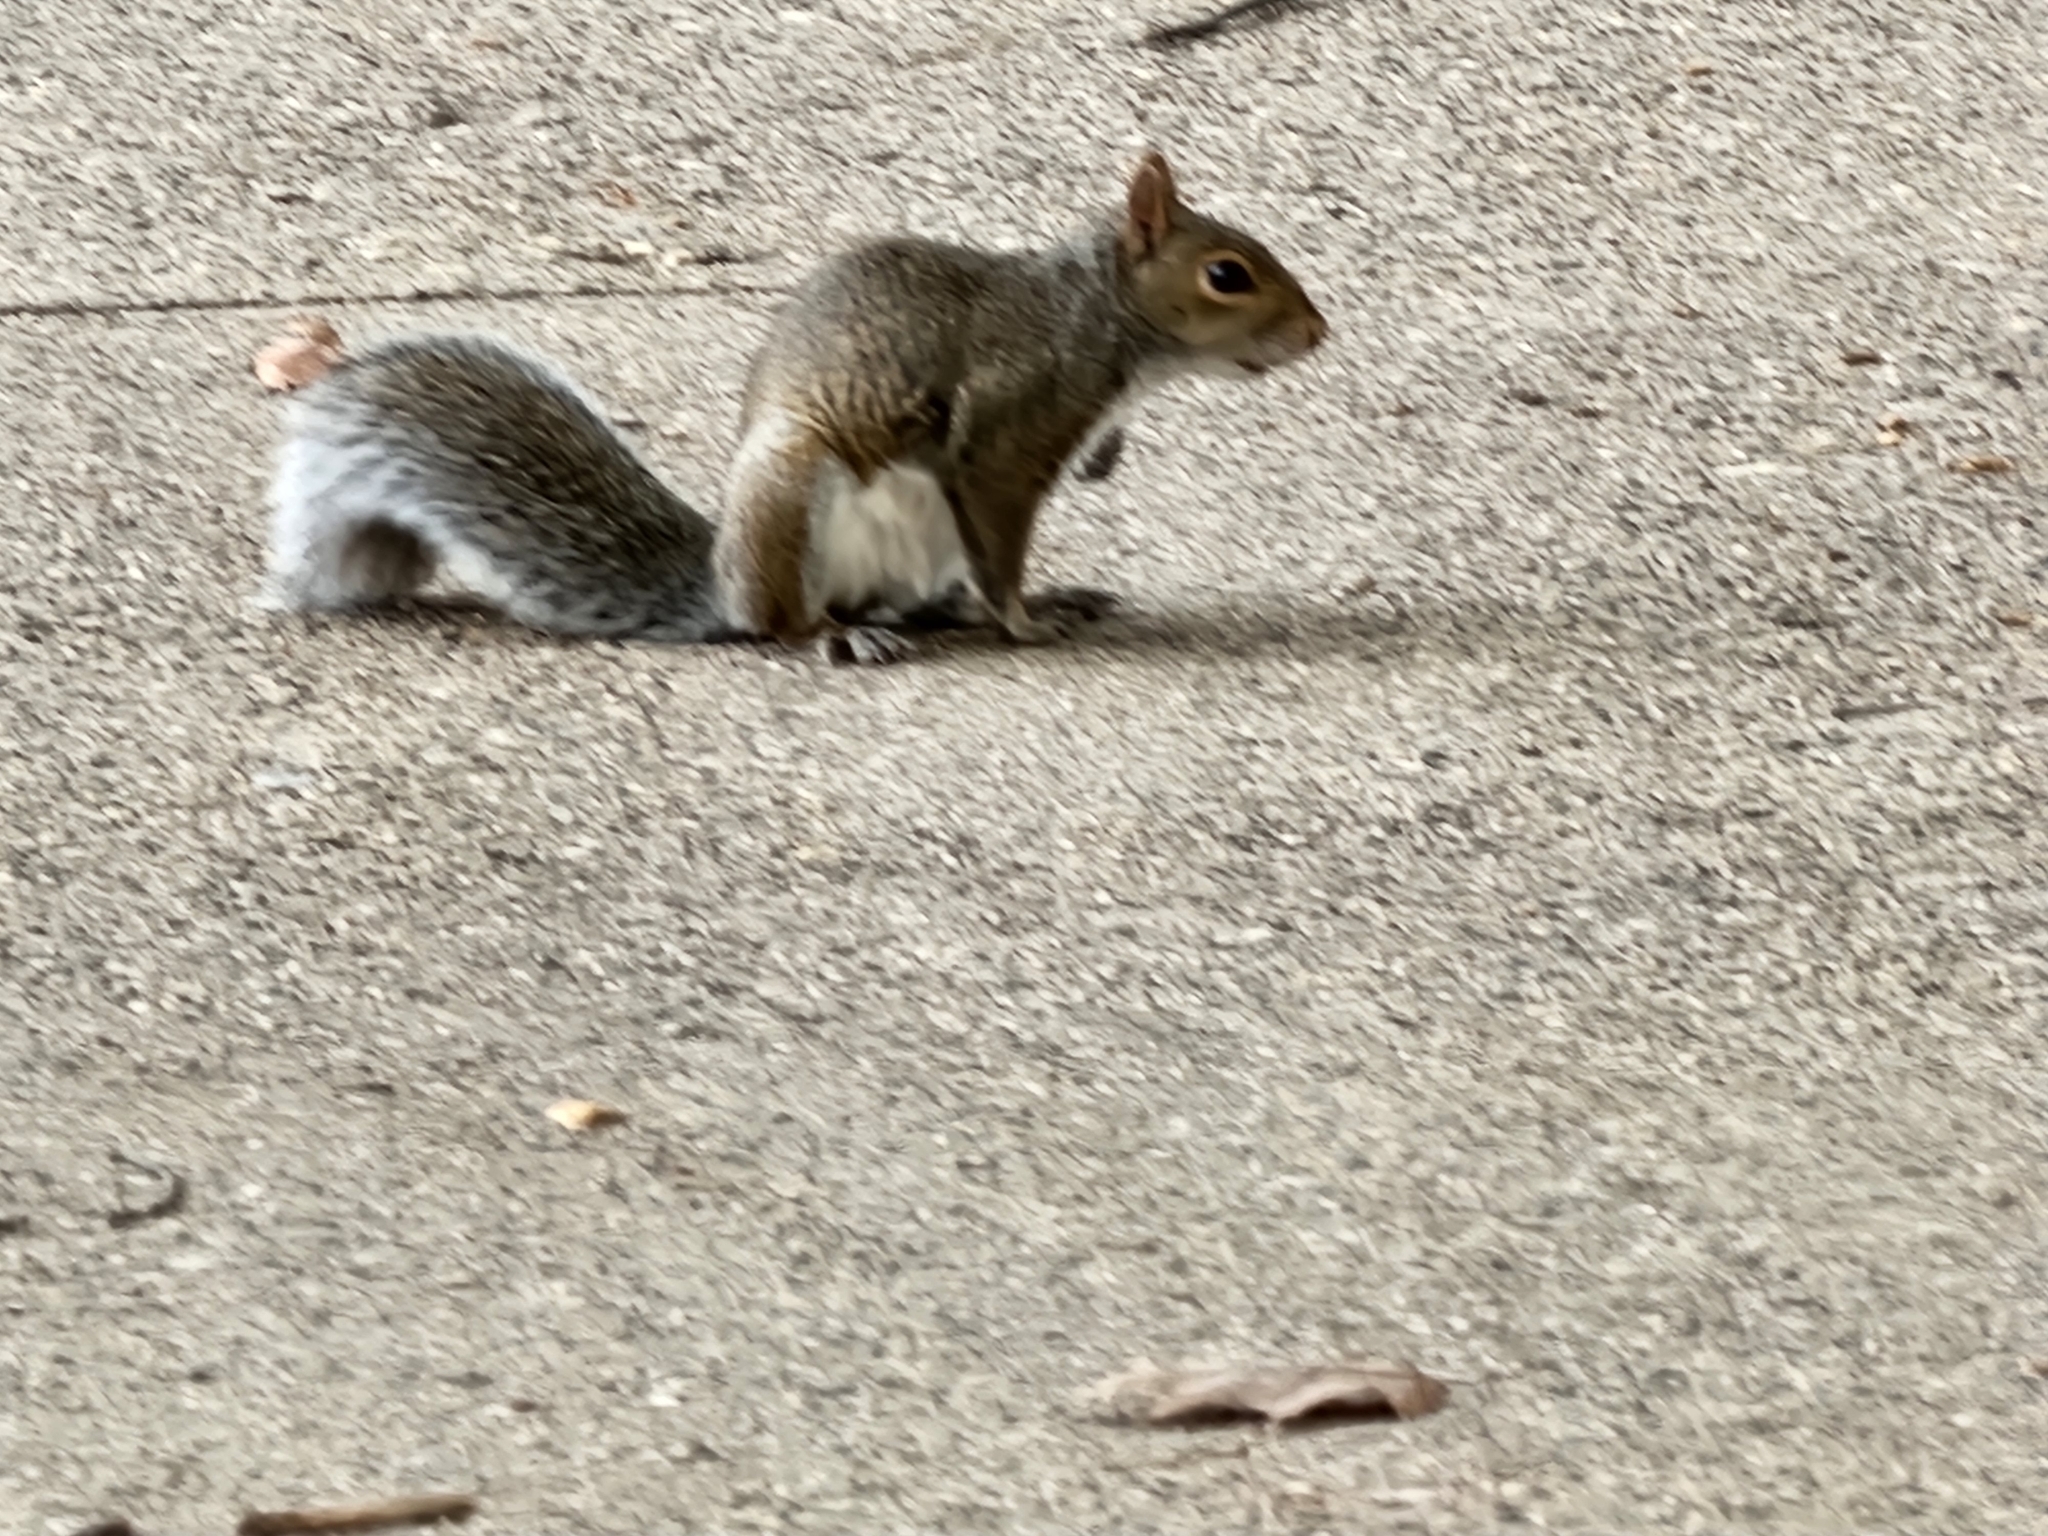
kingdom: Animalia
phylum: Chordata
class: Mammalia
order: Rodentia
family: Sciuridae
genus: Sciurus
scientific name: Sciurus carolinensis
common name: Eastern gray squirrel
